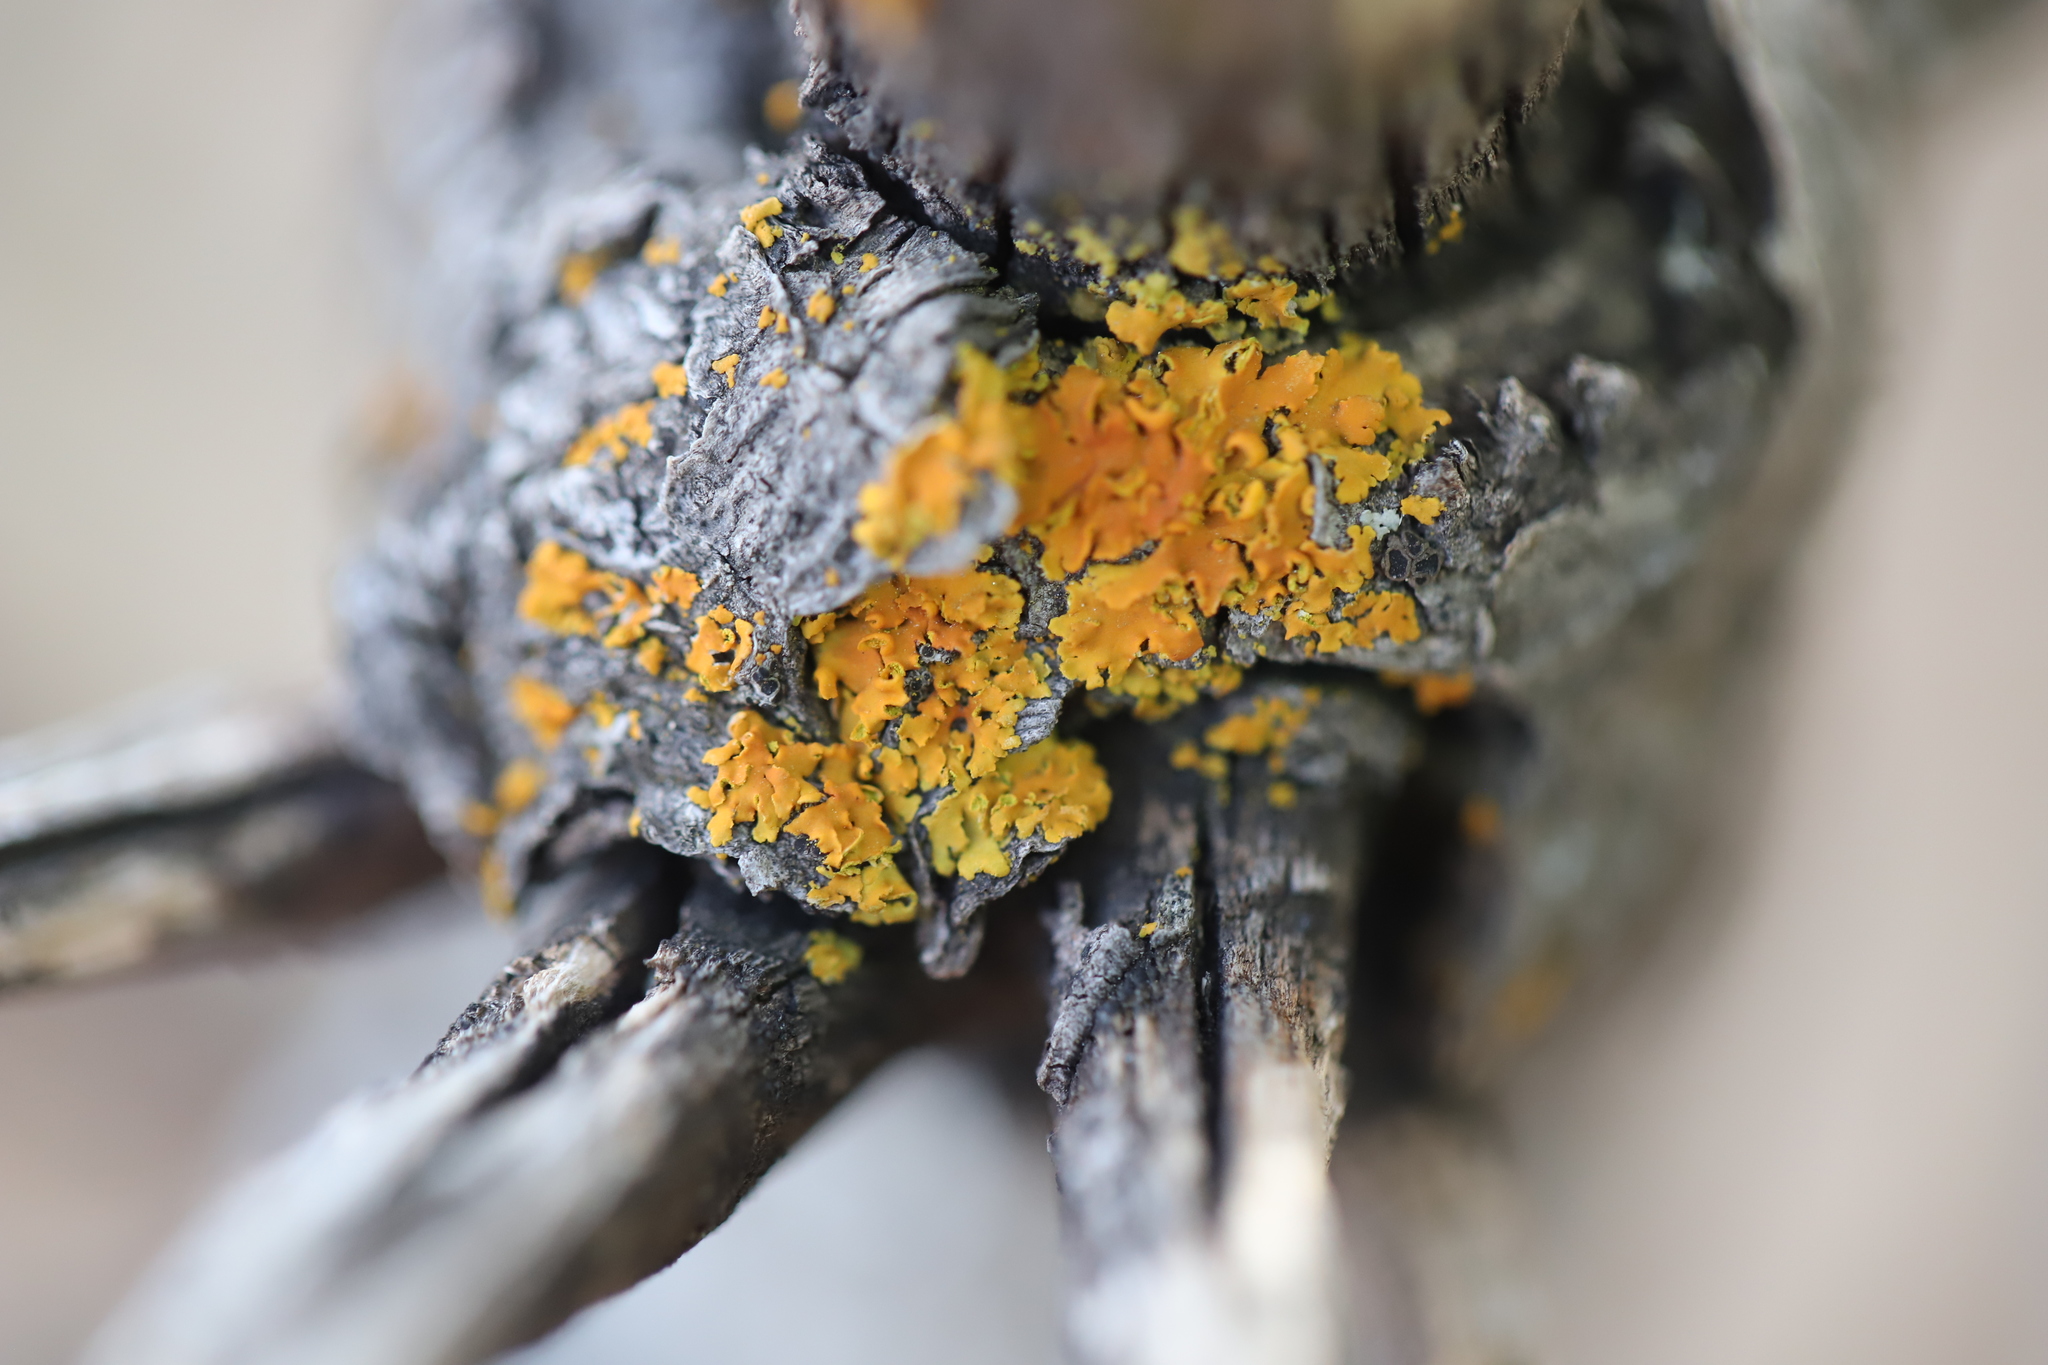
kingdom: Fungi
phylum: Ascomycota
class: Lecanoromycetes
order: Teloschistales
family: Teloschistaceae
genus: Oxneria
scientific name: Oxneria fallax
